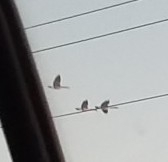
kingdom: Animalia
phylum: Chordata
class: Aves
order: Anseriformes
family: Anatidae
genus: Branta
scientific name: Branta canadensis
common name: Canada goose
